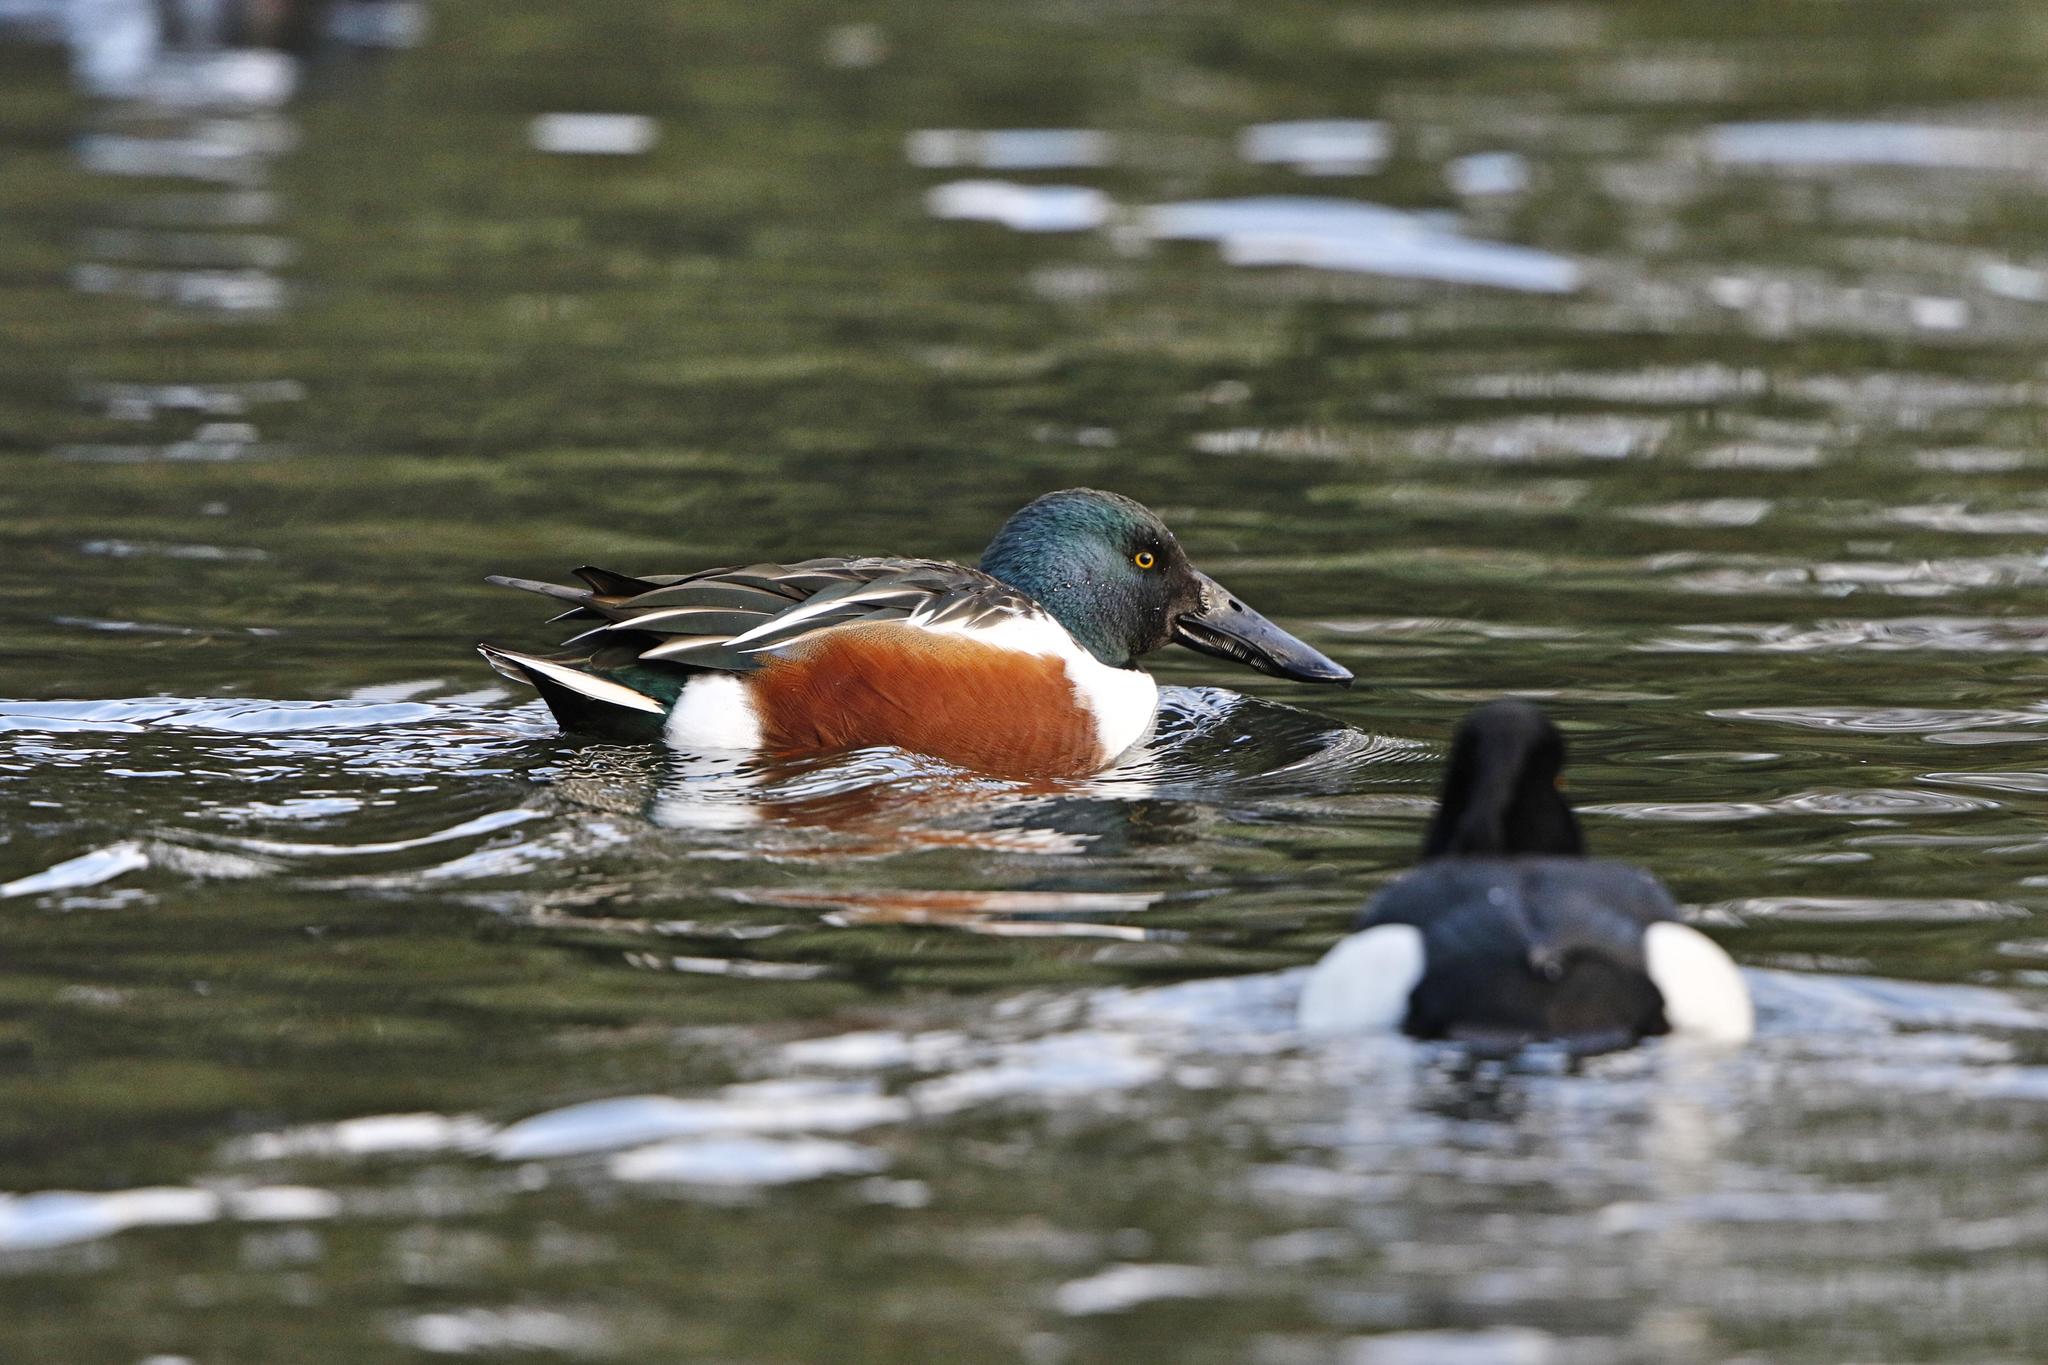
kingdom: Animalia
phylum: Chordata
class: Aves
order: Anseriformes
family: Anatidae
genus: Spatula
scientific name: Spatula clypeata
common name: Northern shoveler
